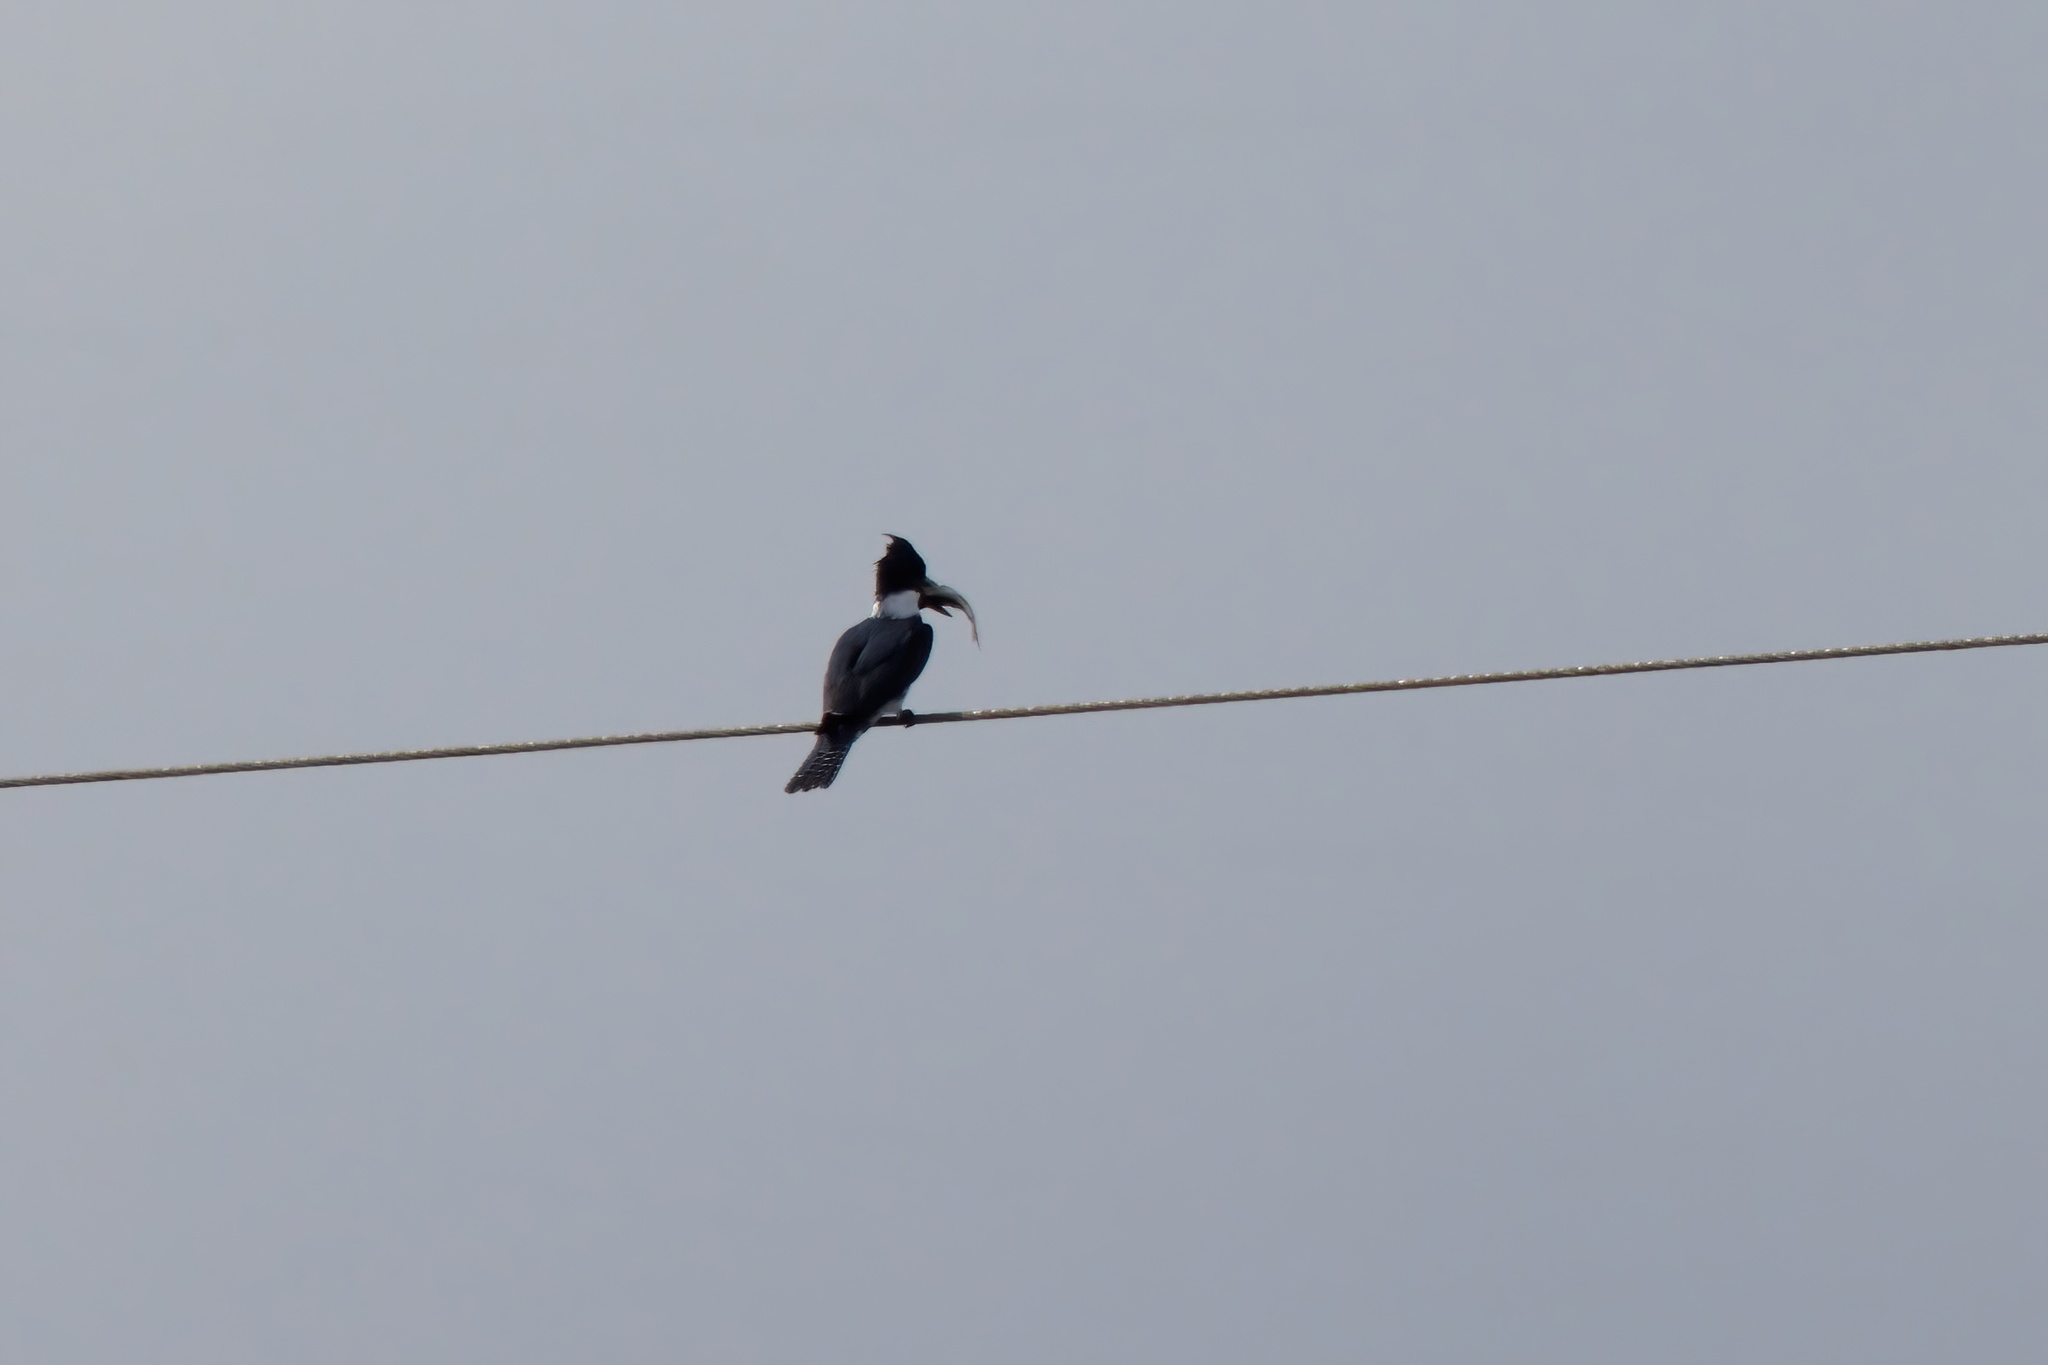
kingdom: Animalia
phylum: Chordata
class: Aves
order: Coraciiformes
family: Alcedinidae
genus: Megaceryle
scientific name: Megaceryle alcyon
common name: Belted kingfisher
